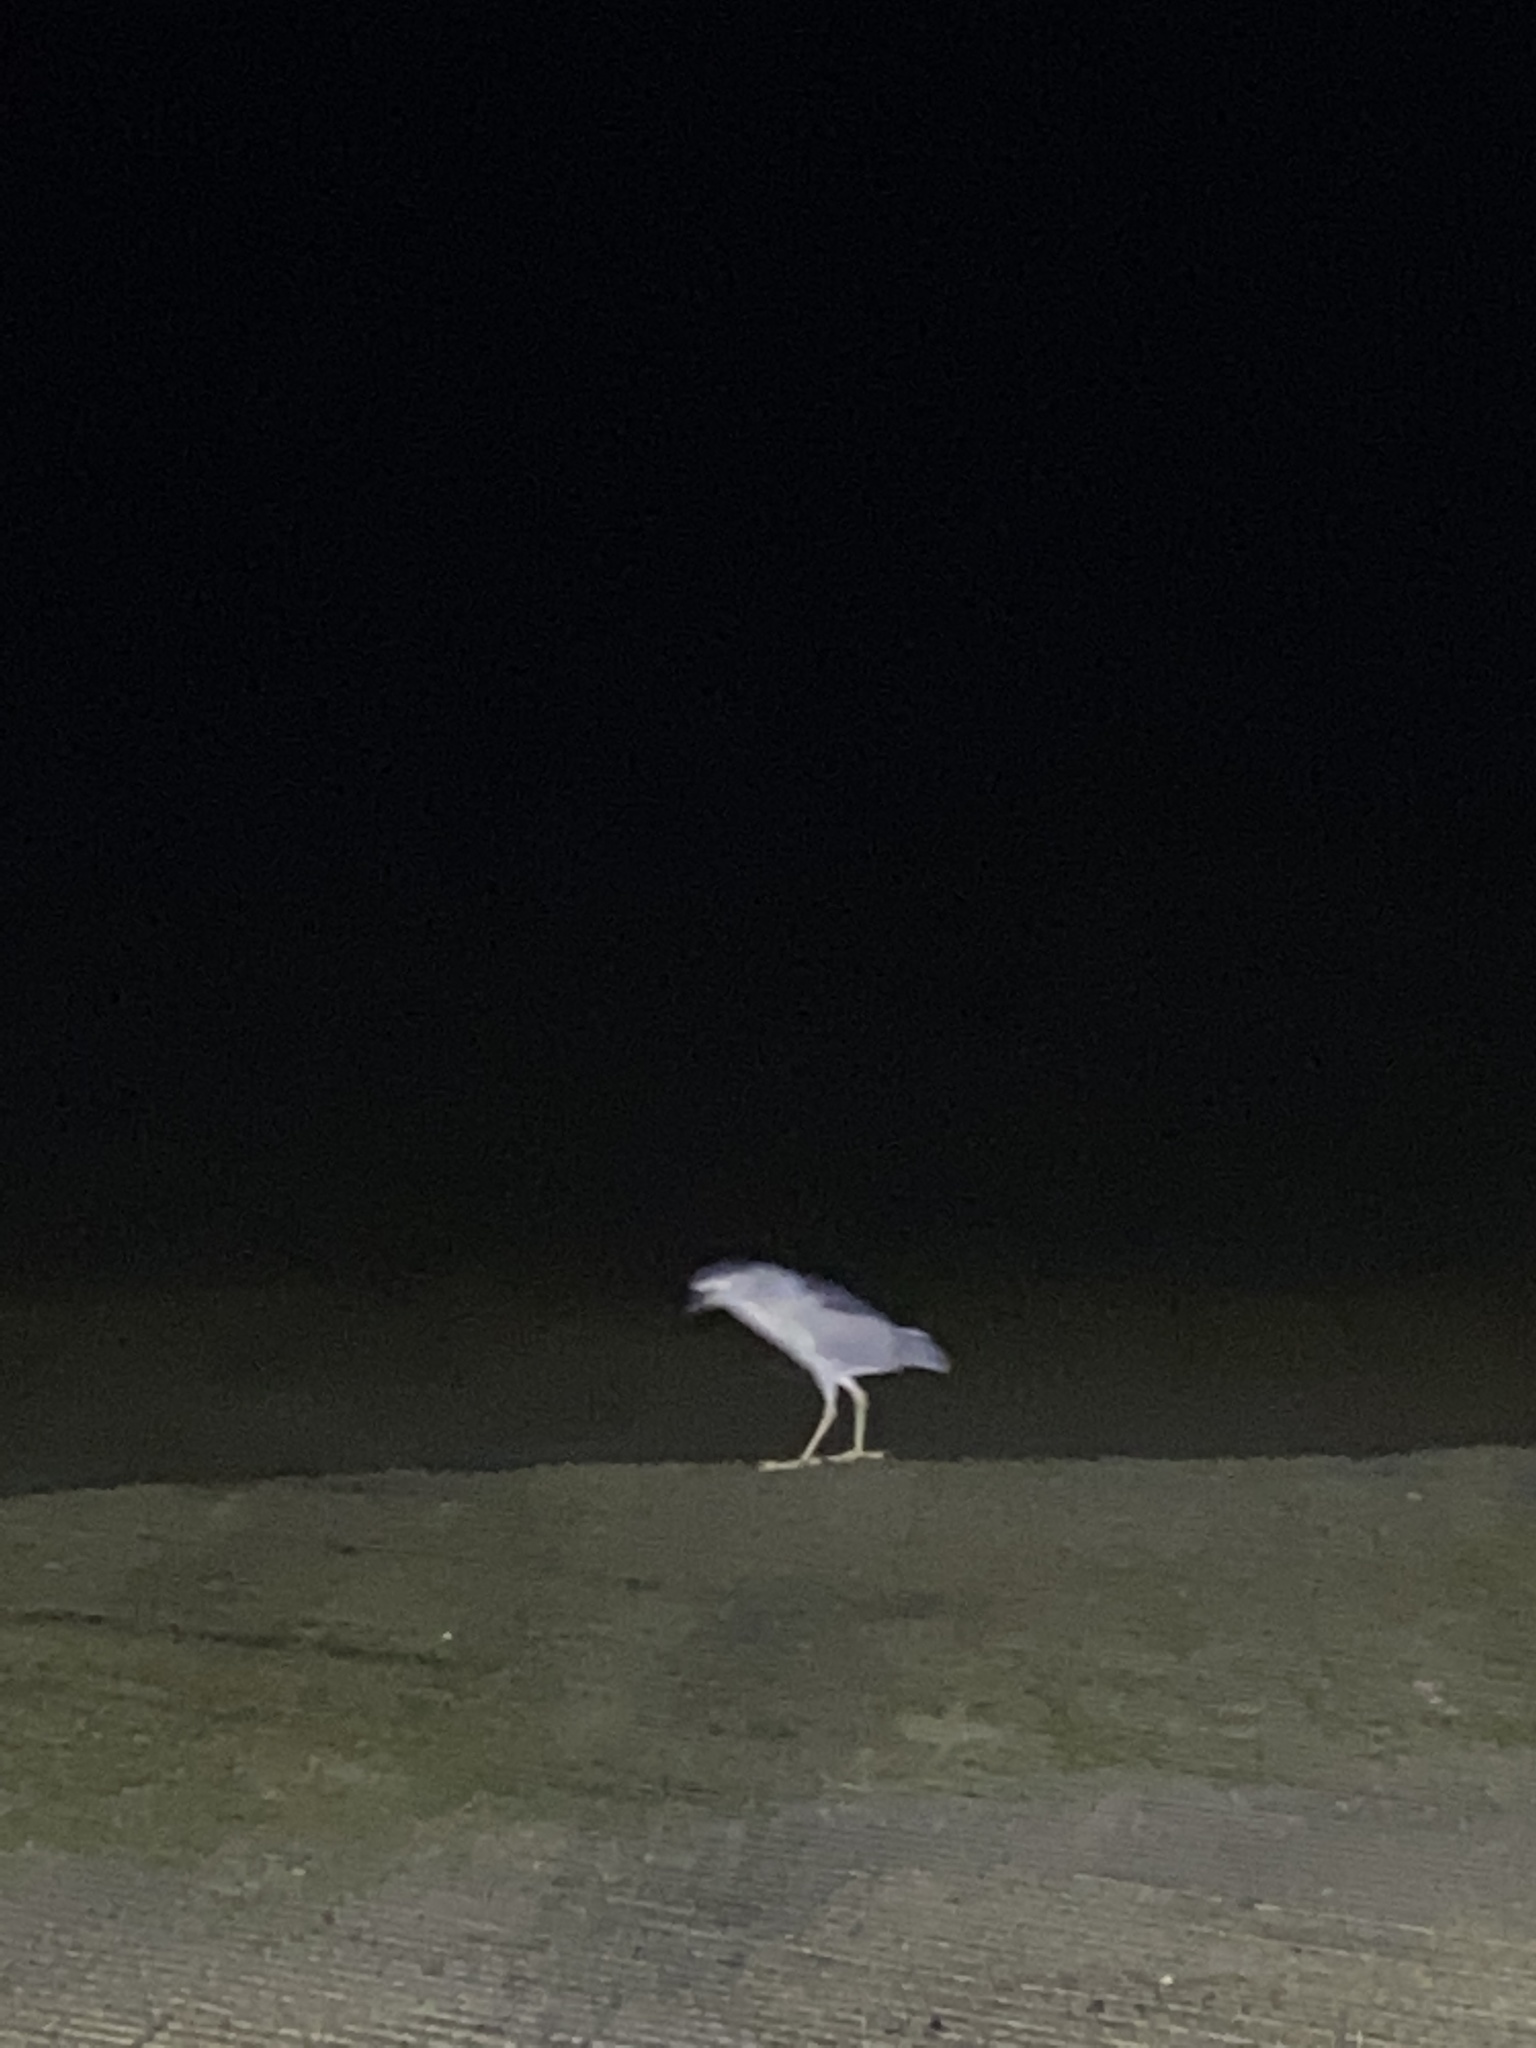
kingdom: Animalia
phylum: Chordata
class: Aves
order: Pelecaniformes
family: Ardeidae
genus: Nycticorax
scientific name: Nycticorax nycticorax
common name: Black-crowned night heron
